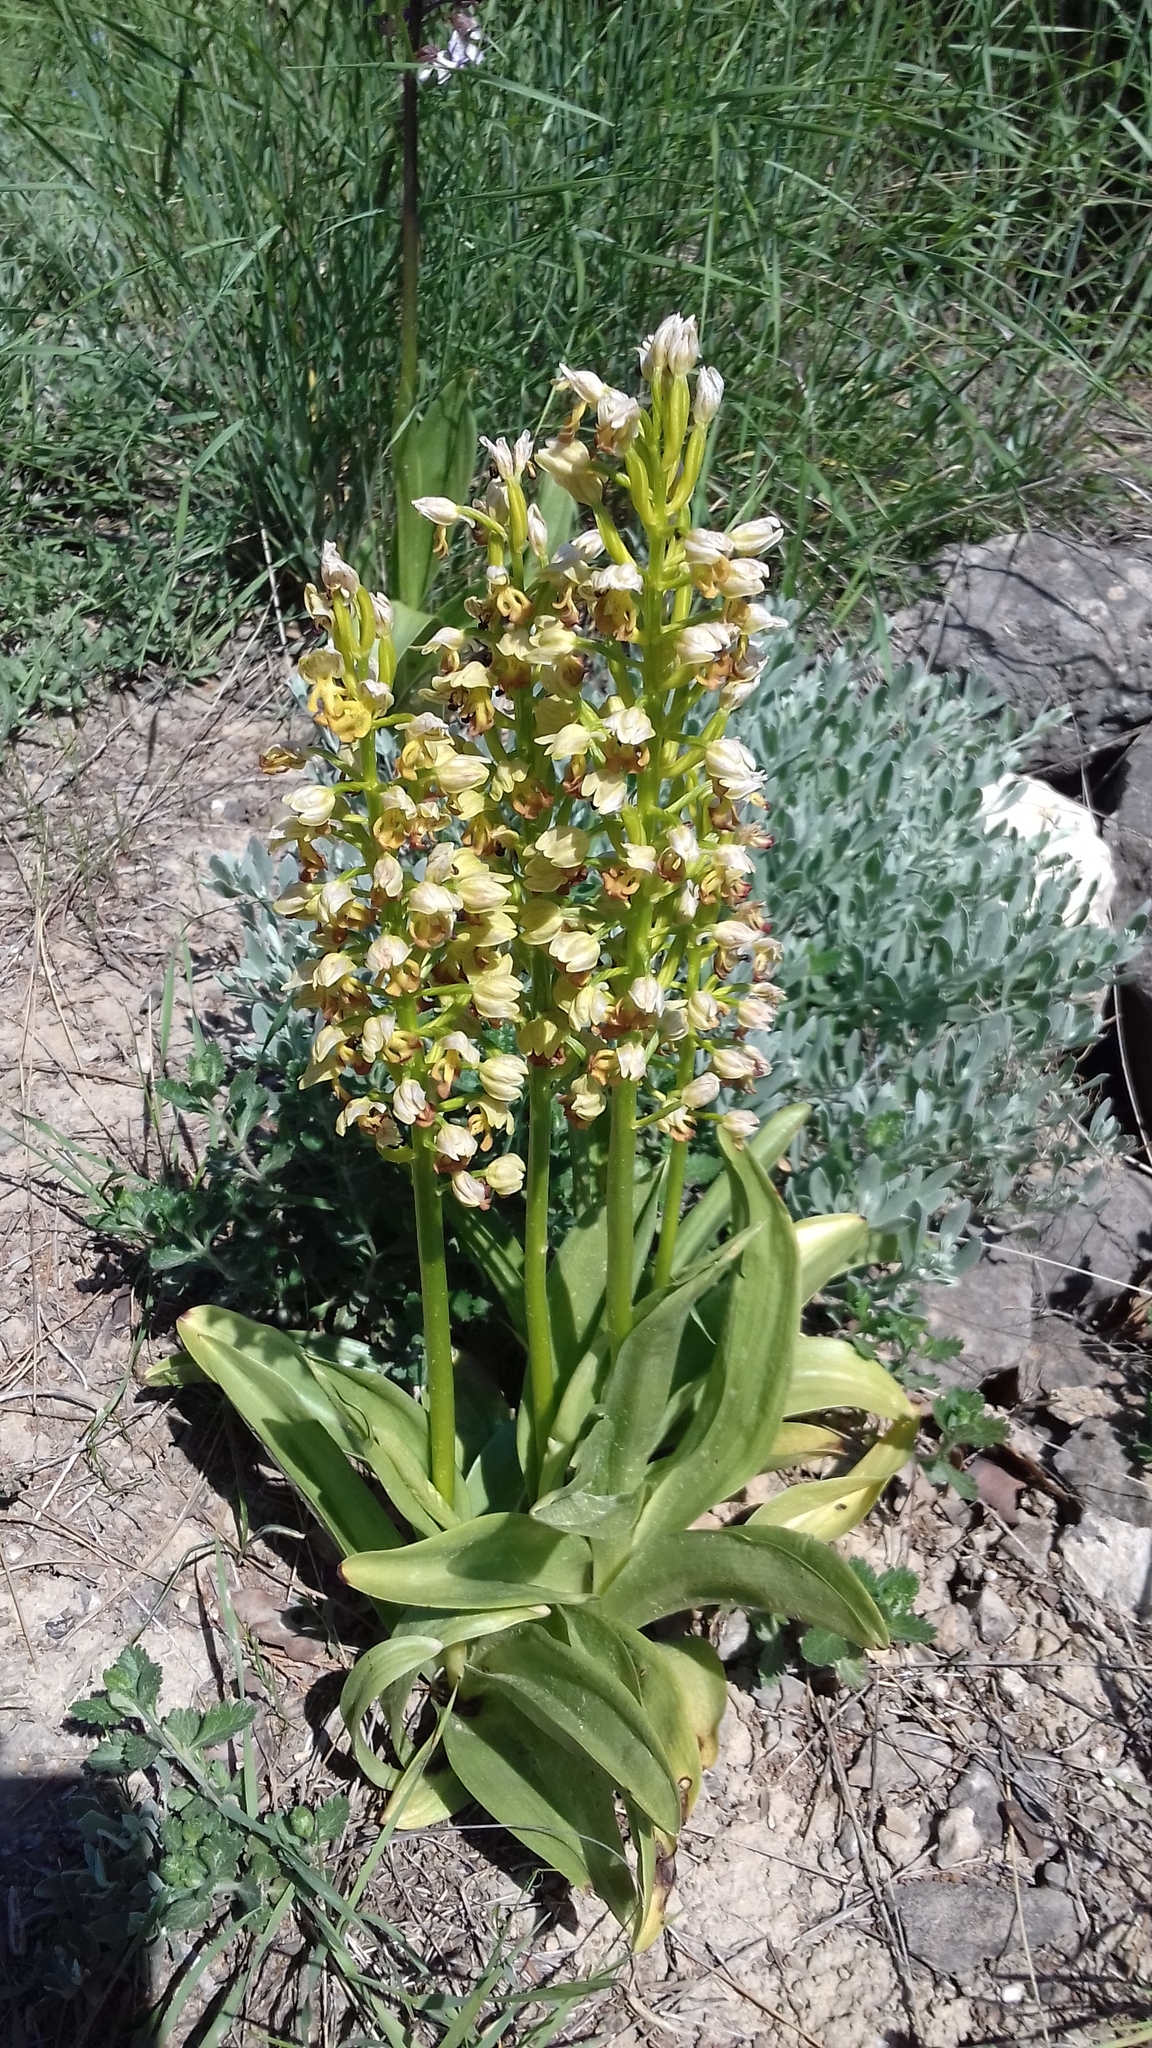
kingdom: Plantae
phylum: Tracheophyta
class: Liliopsida
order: Asparagales
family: Orchidaceae
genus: Orchis
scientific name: Orchis punctulata
